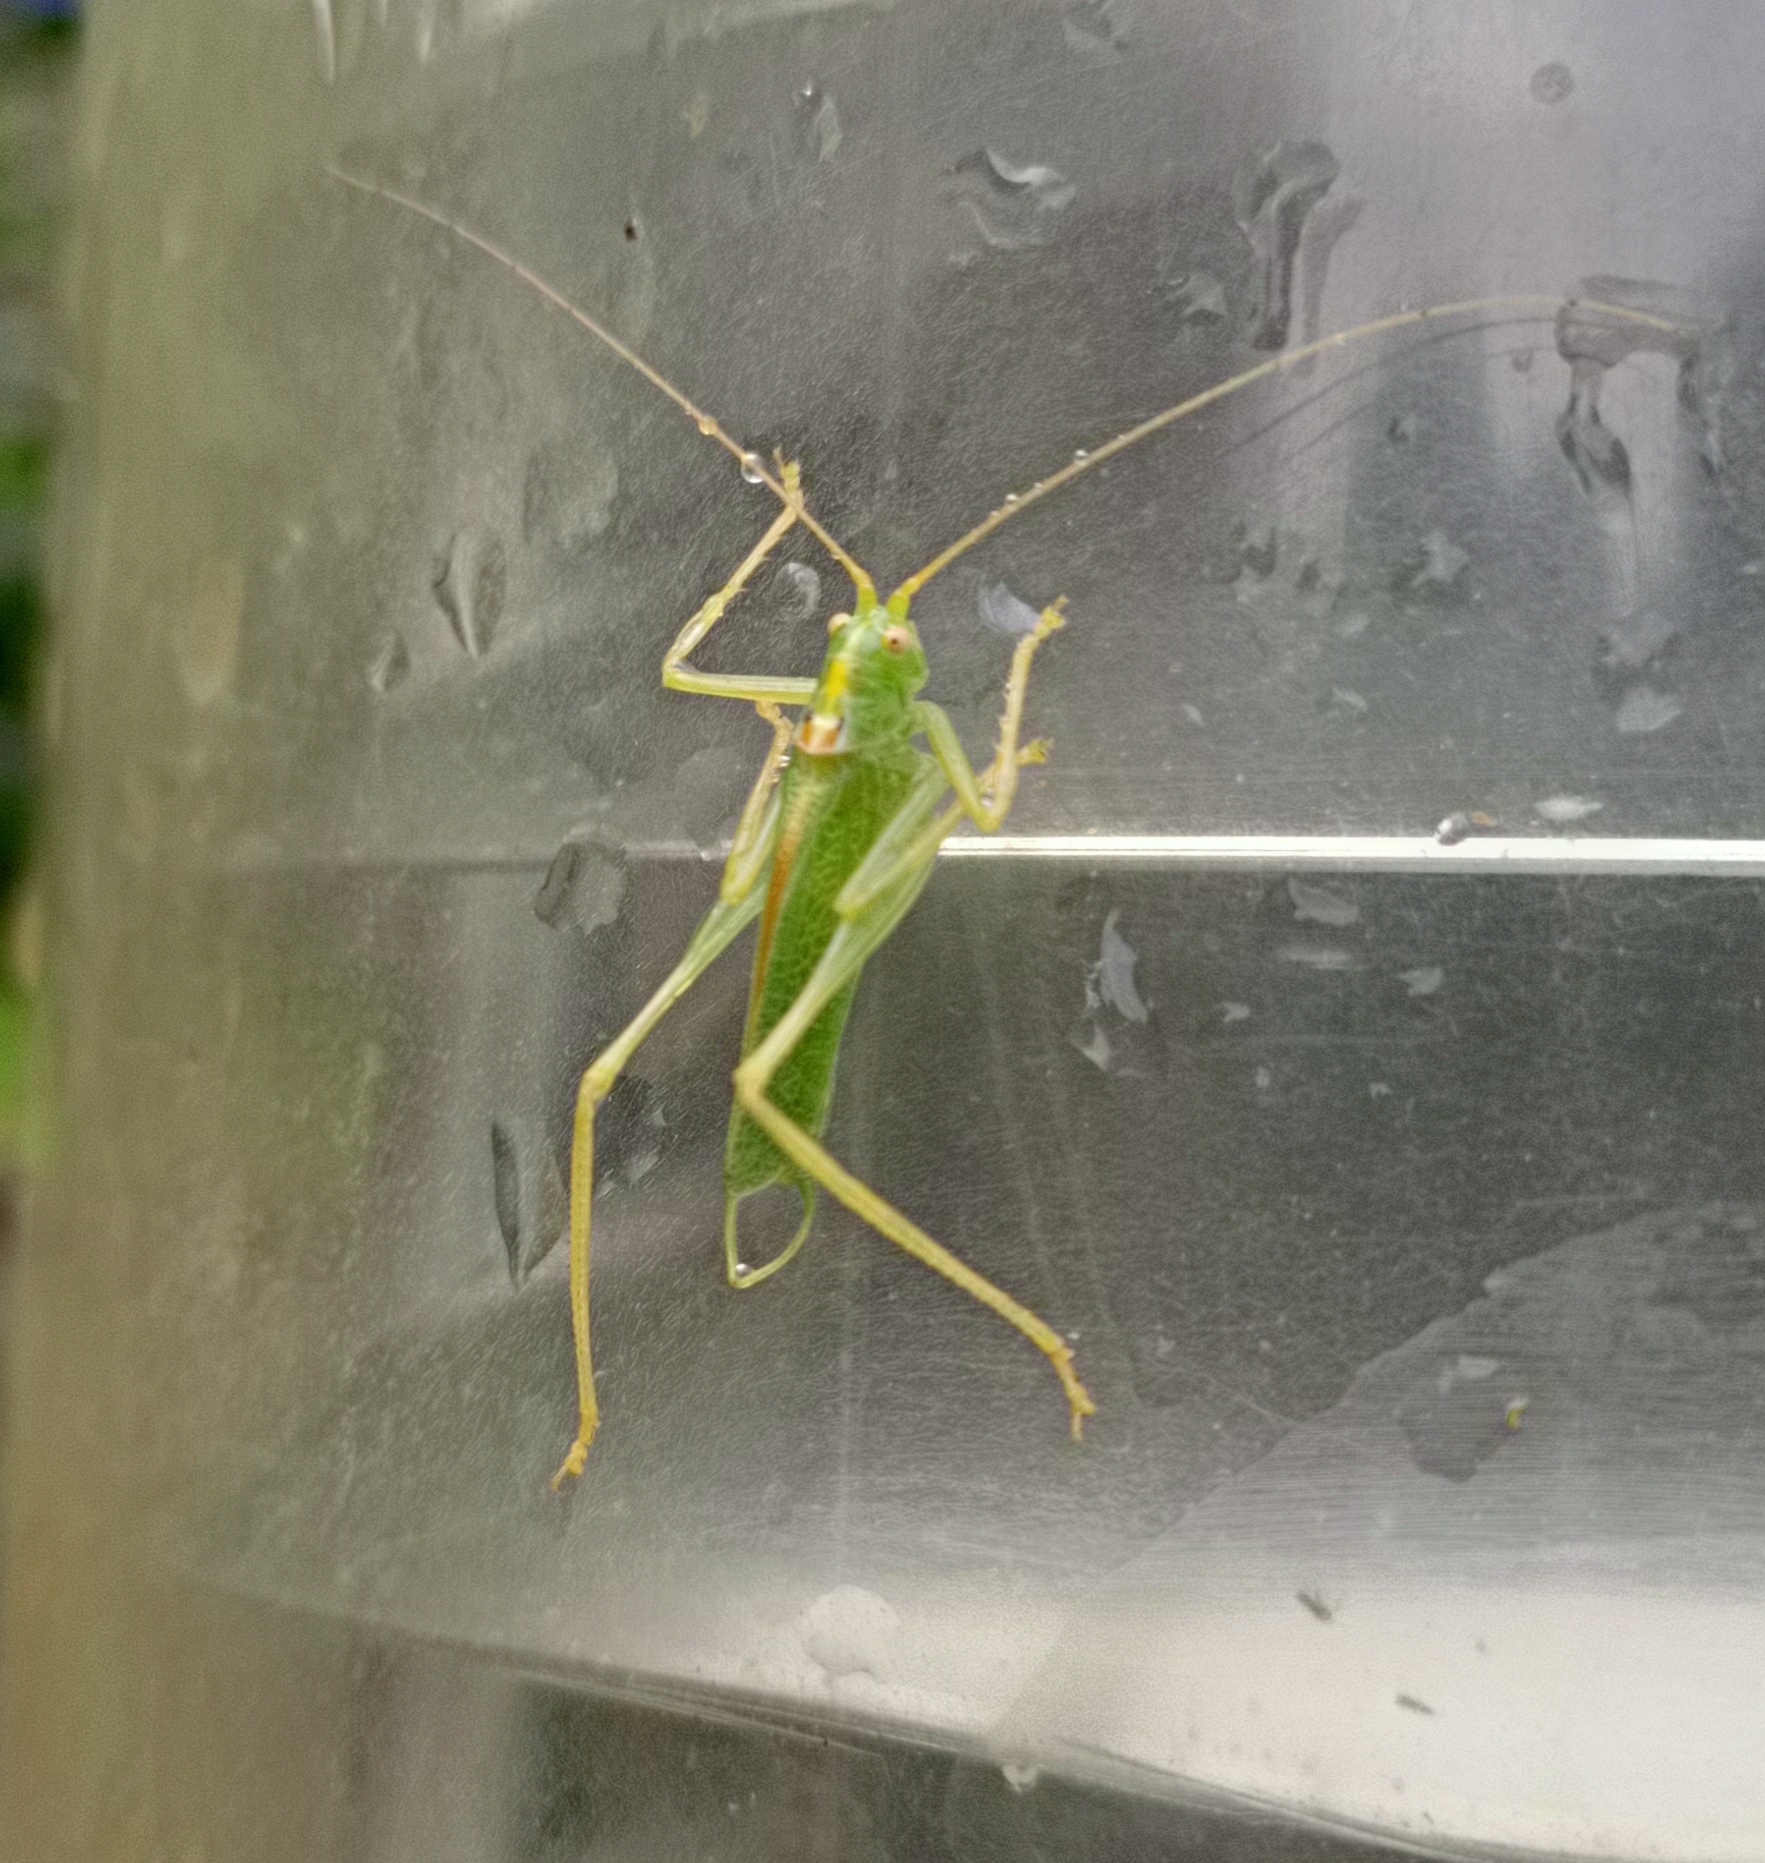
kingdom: Animalia
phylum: Arthropoda
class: Insecta
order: Orthoptera
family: Tettigoniidae
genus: Meconema
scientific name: Meconema thalassinum
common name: Oak bush-cricket
